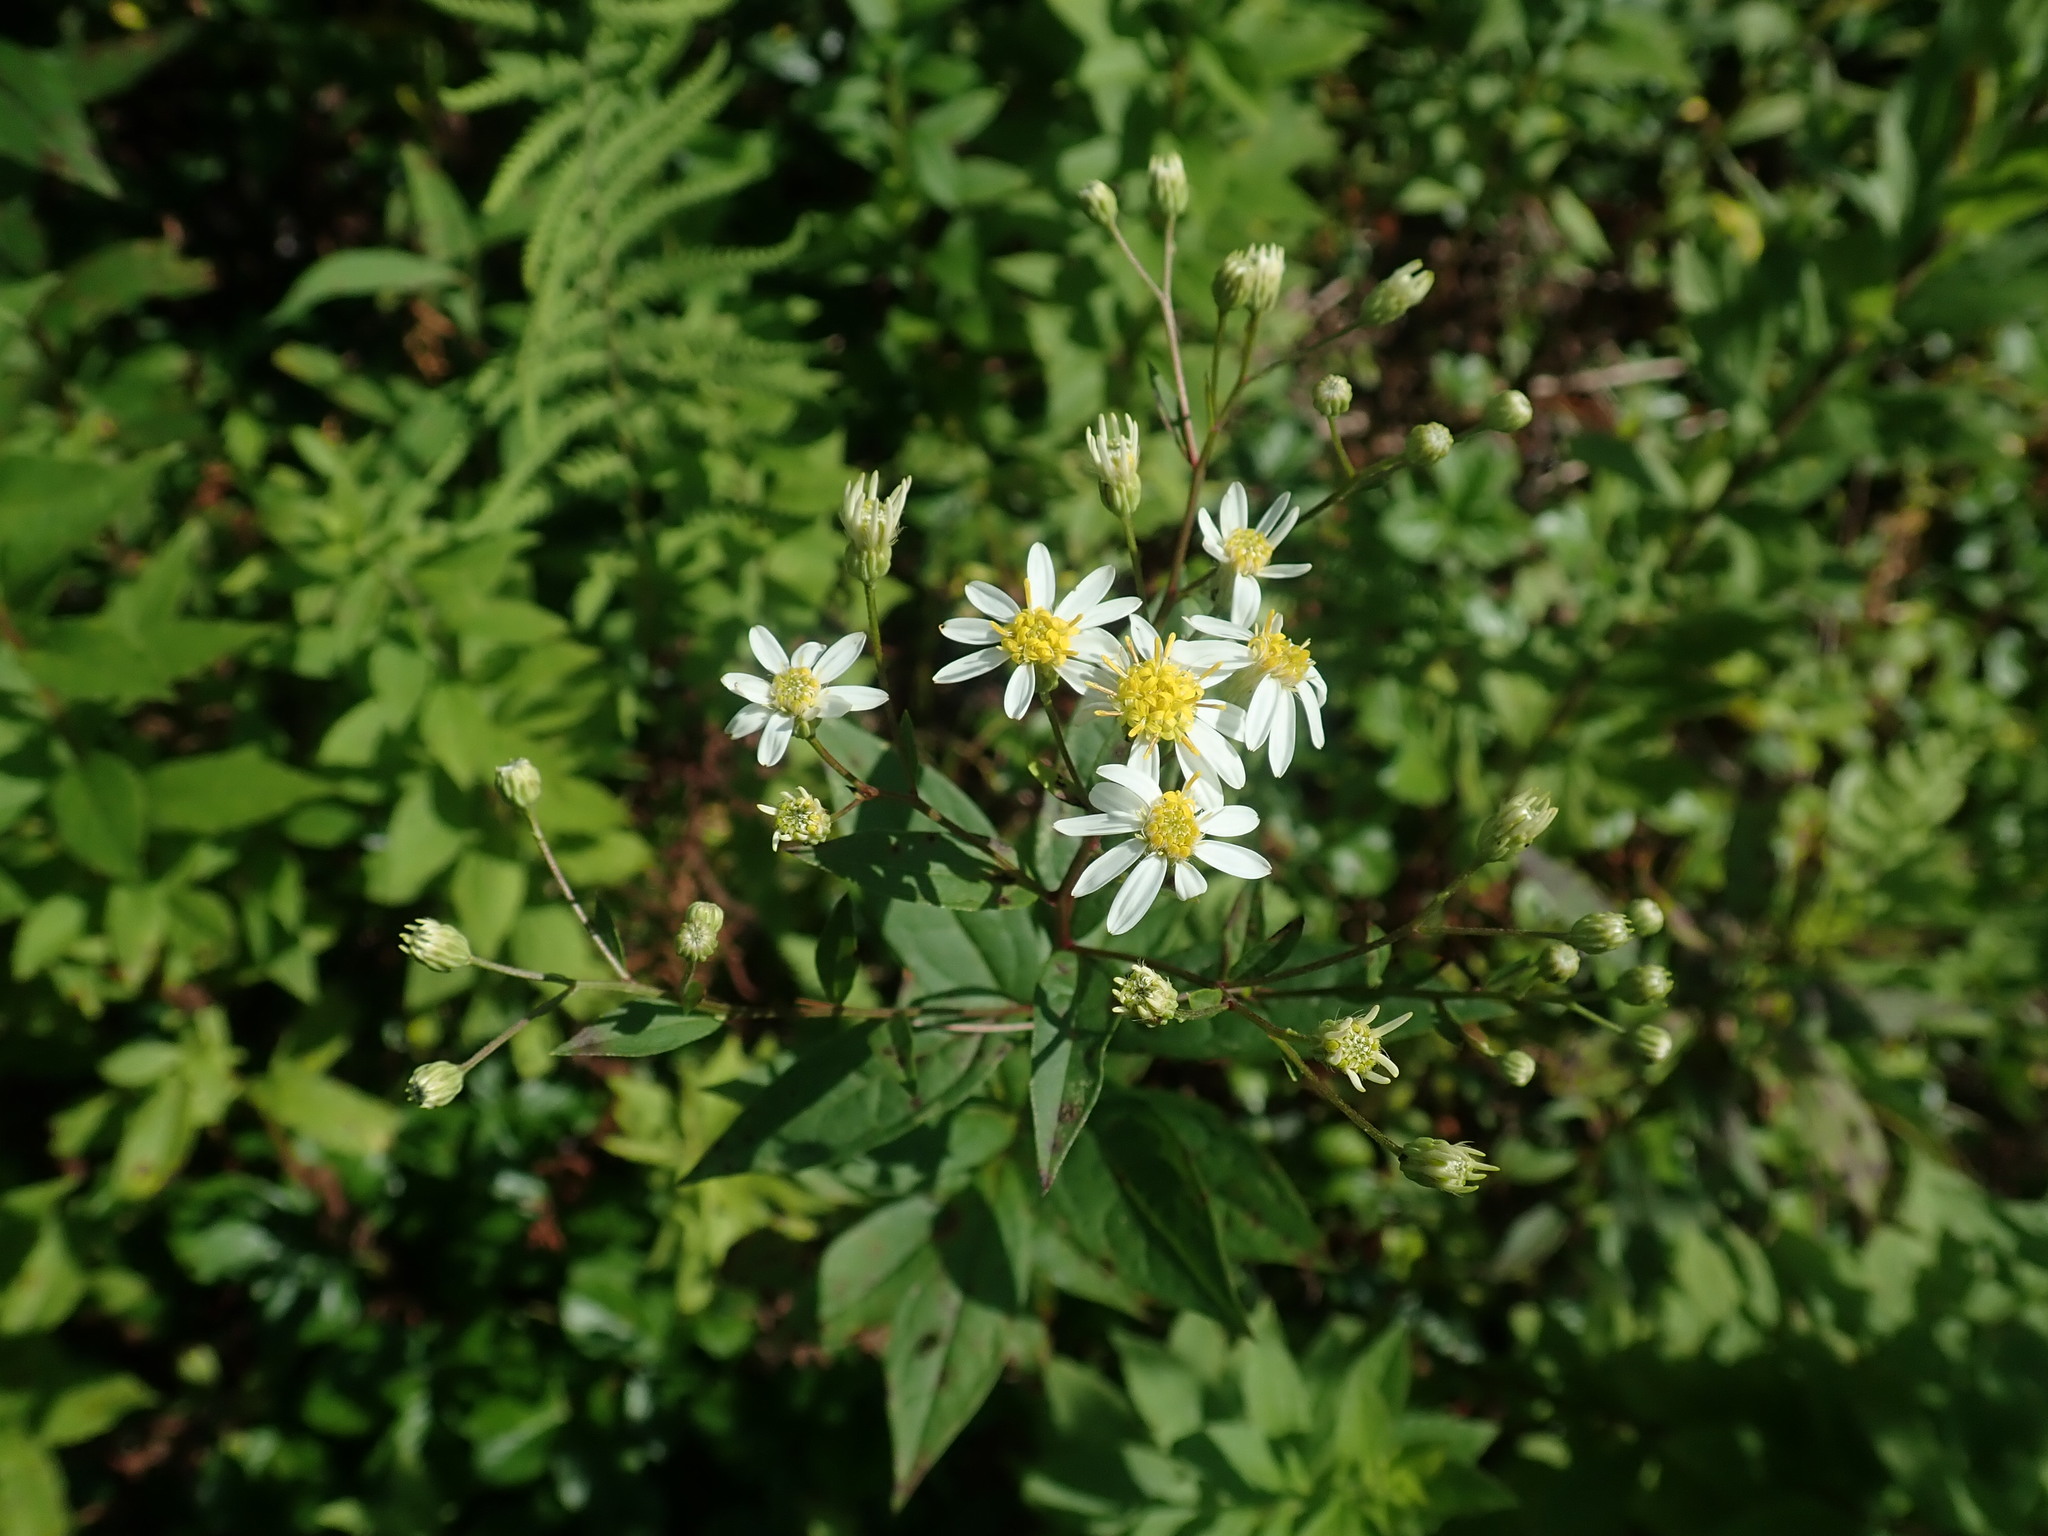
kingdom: Plantae
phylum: Tracheophyta
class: Magnoliopsida
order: Asterales
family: Asteraceae
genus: Doellingeria
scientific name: Doellingeria umbellata
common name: Flat-top white aster
